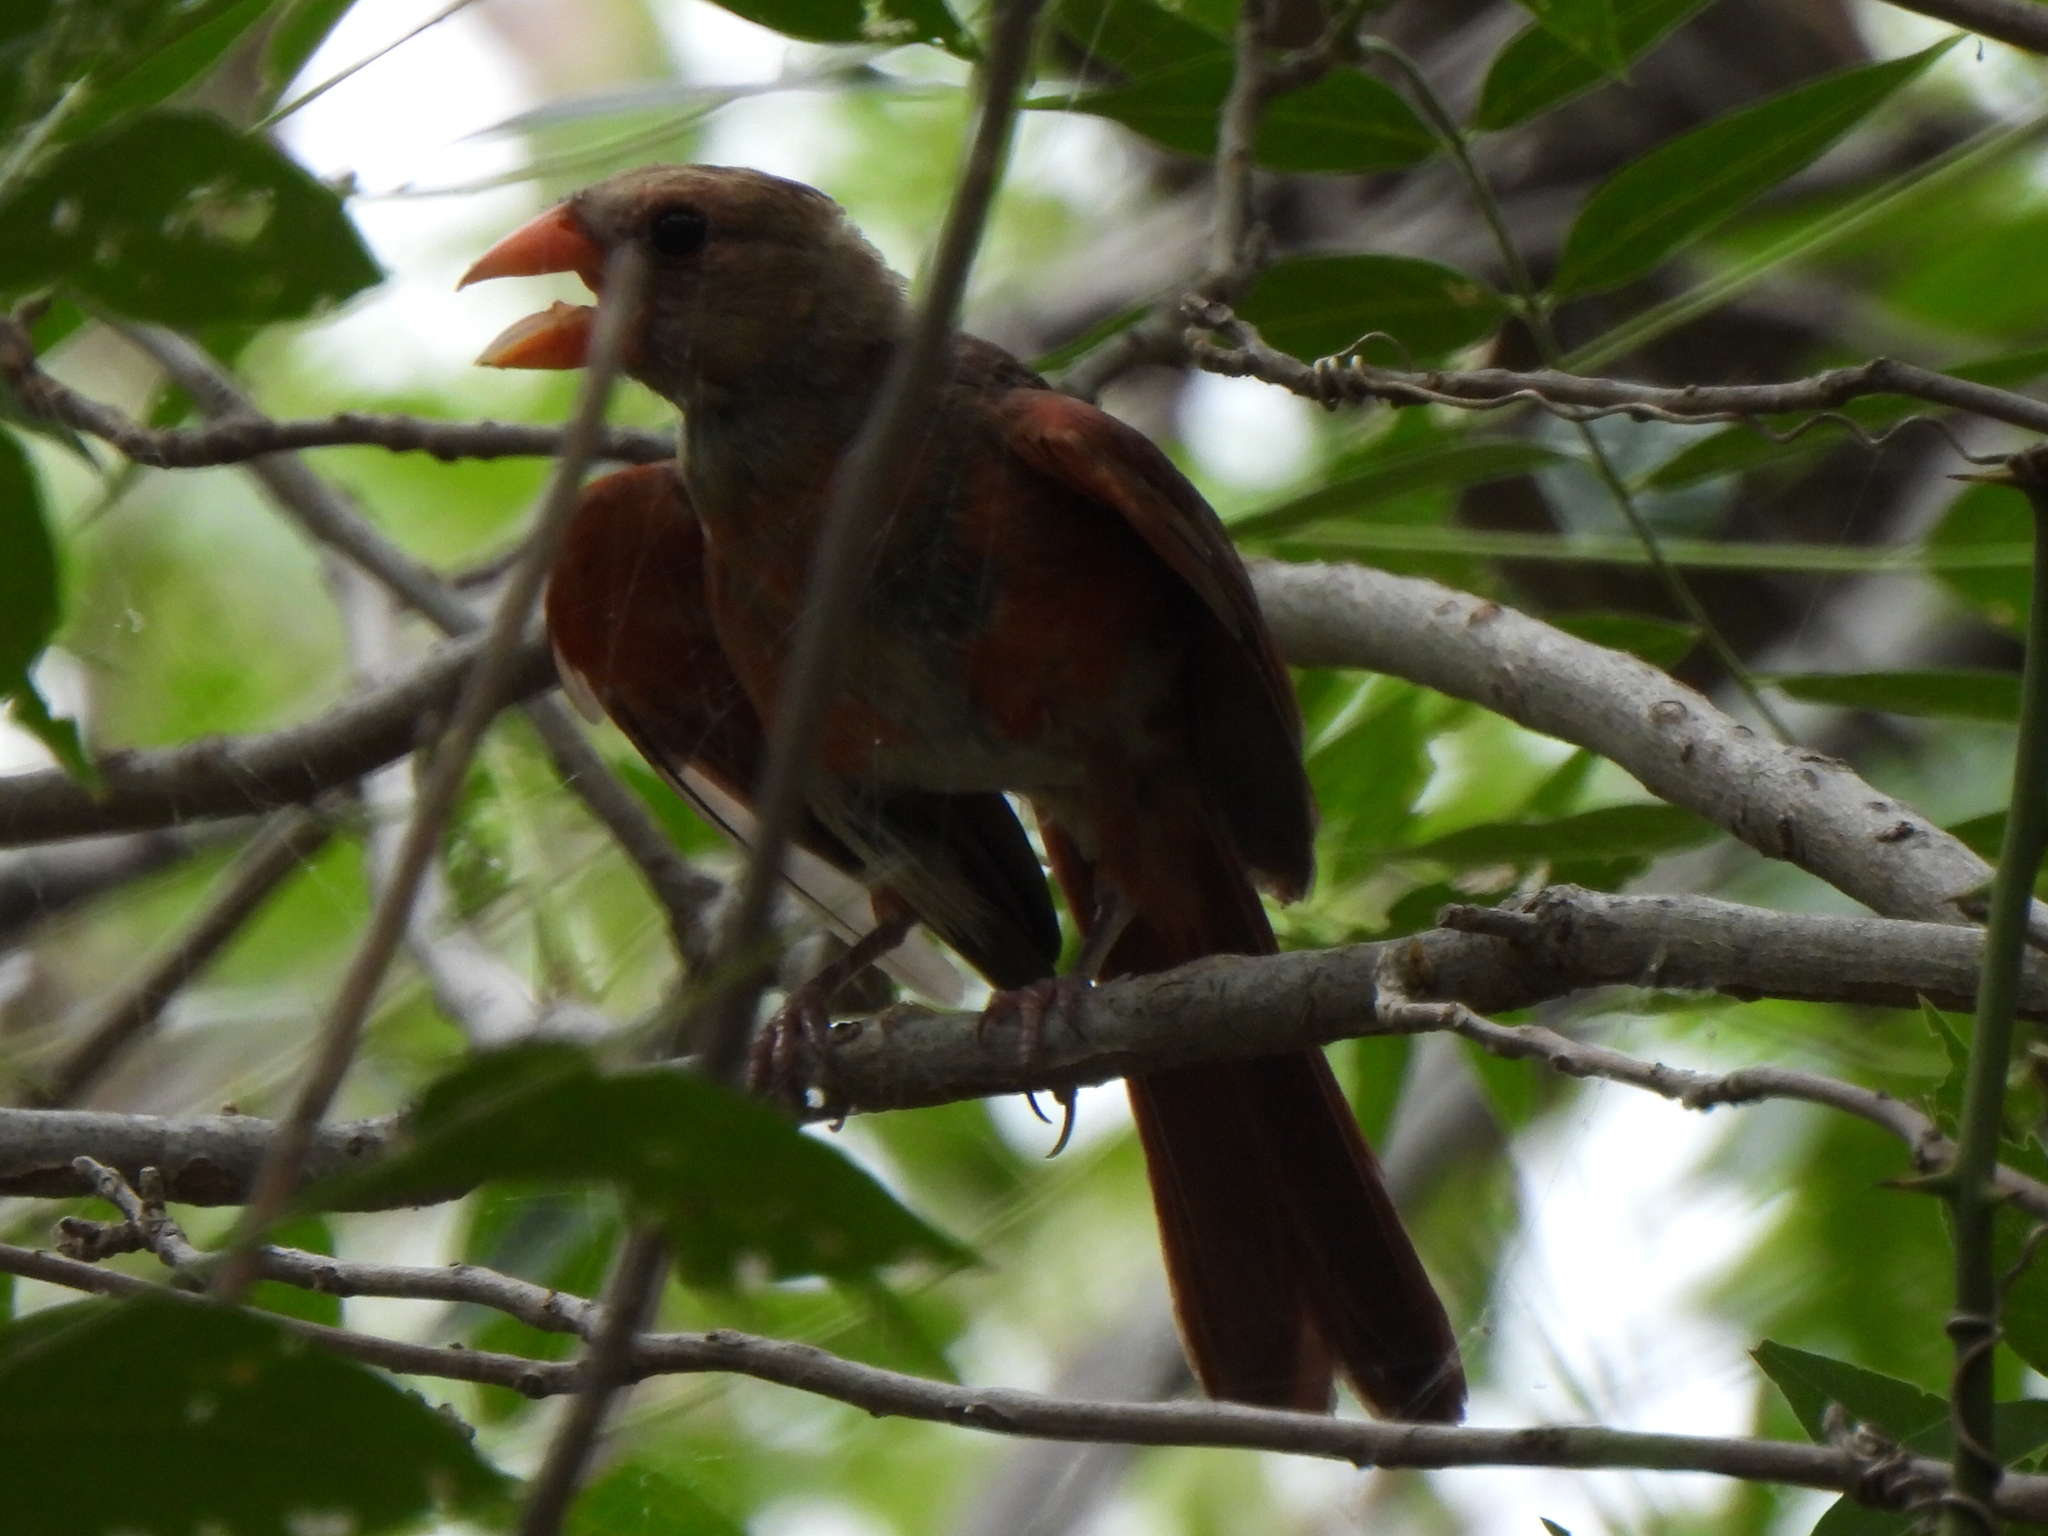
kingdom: Animalia
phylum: Chordata
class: Aves
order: Passeriformes
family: Cardinalidae
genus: Cardinalis
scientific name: Cardinalis cardinalis
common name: Northern cardinal
